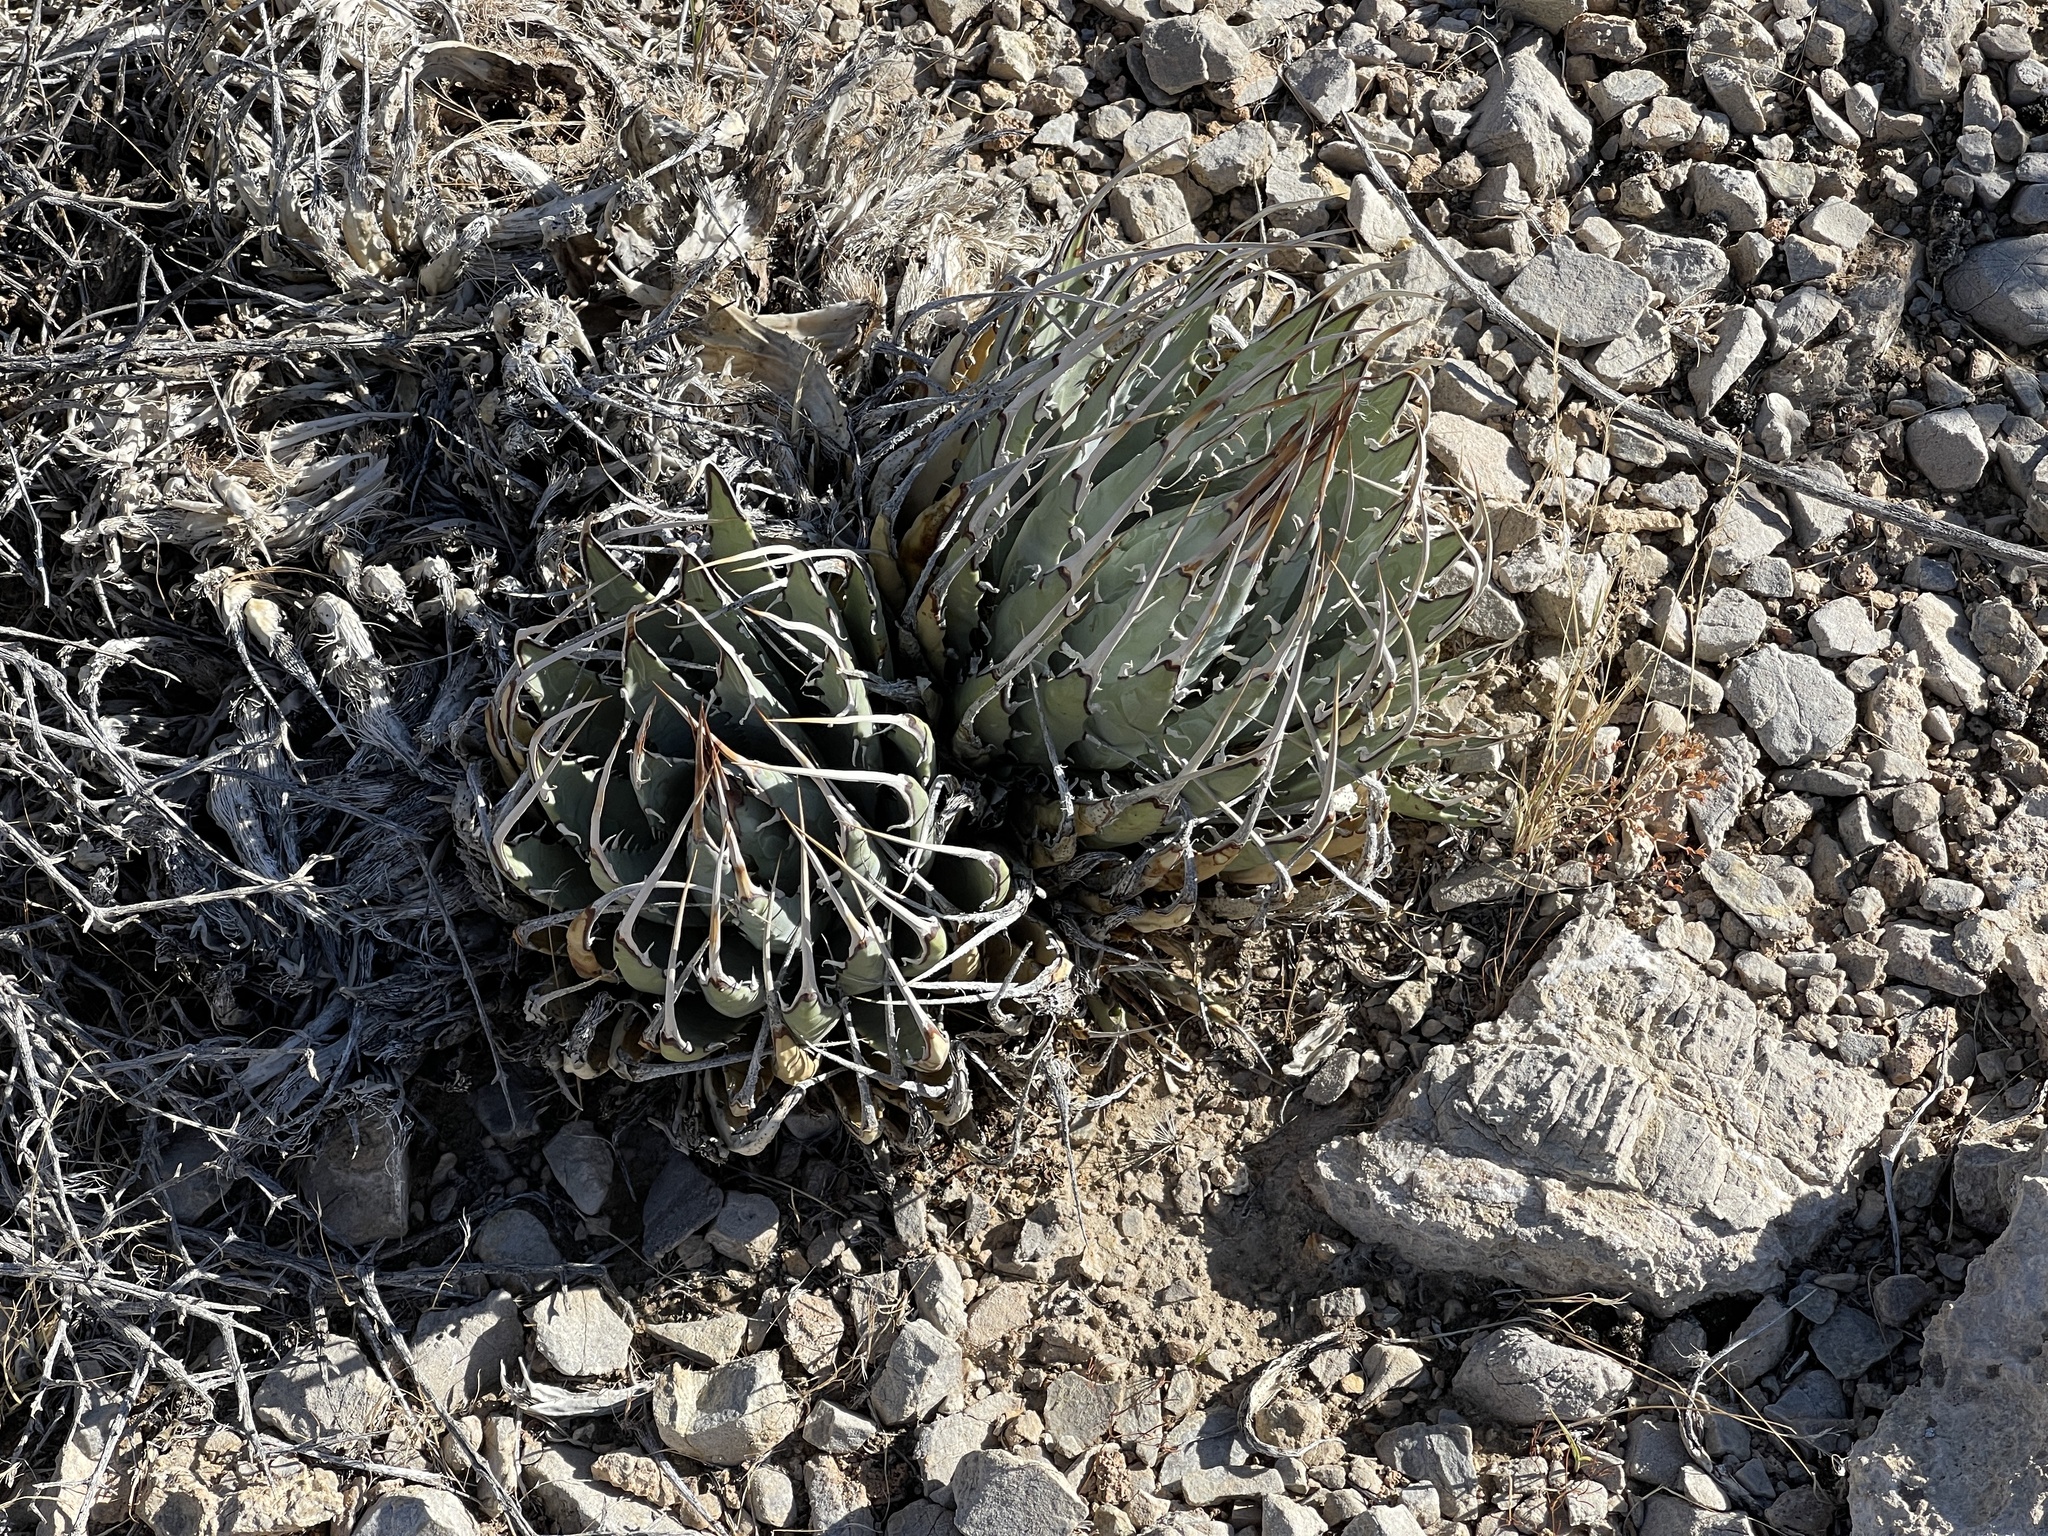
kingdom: Plantae
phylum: Tracheophyta
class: Liliopsida
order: Asparagales
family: Asparagaceae
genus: Agave
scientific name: Agave utahensis
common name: Utah agave
